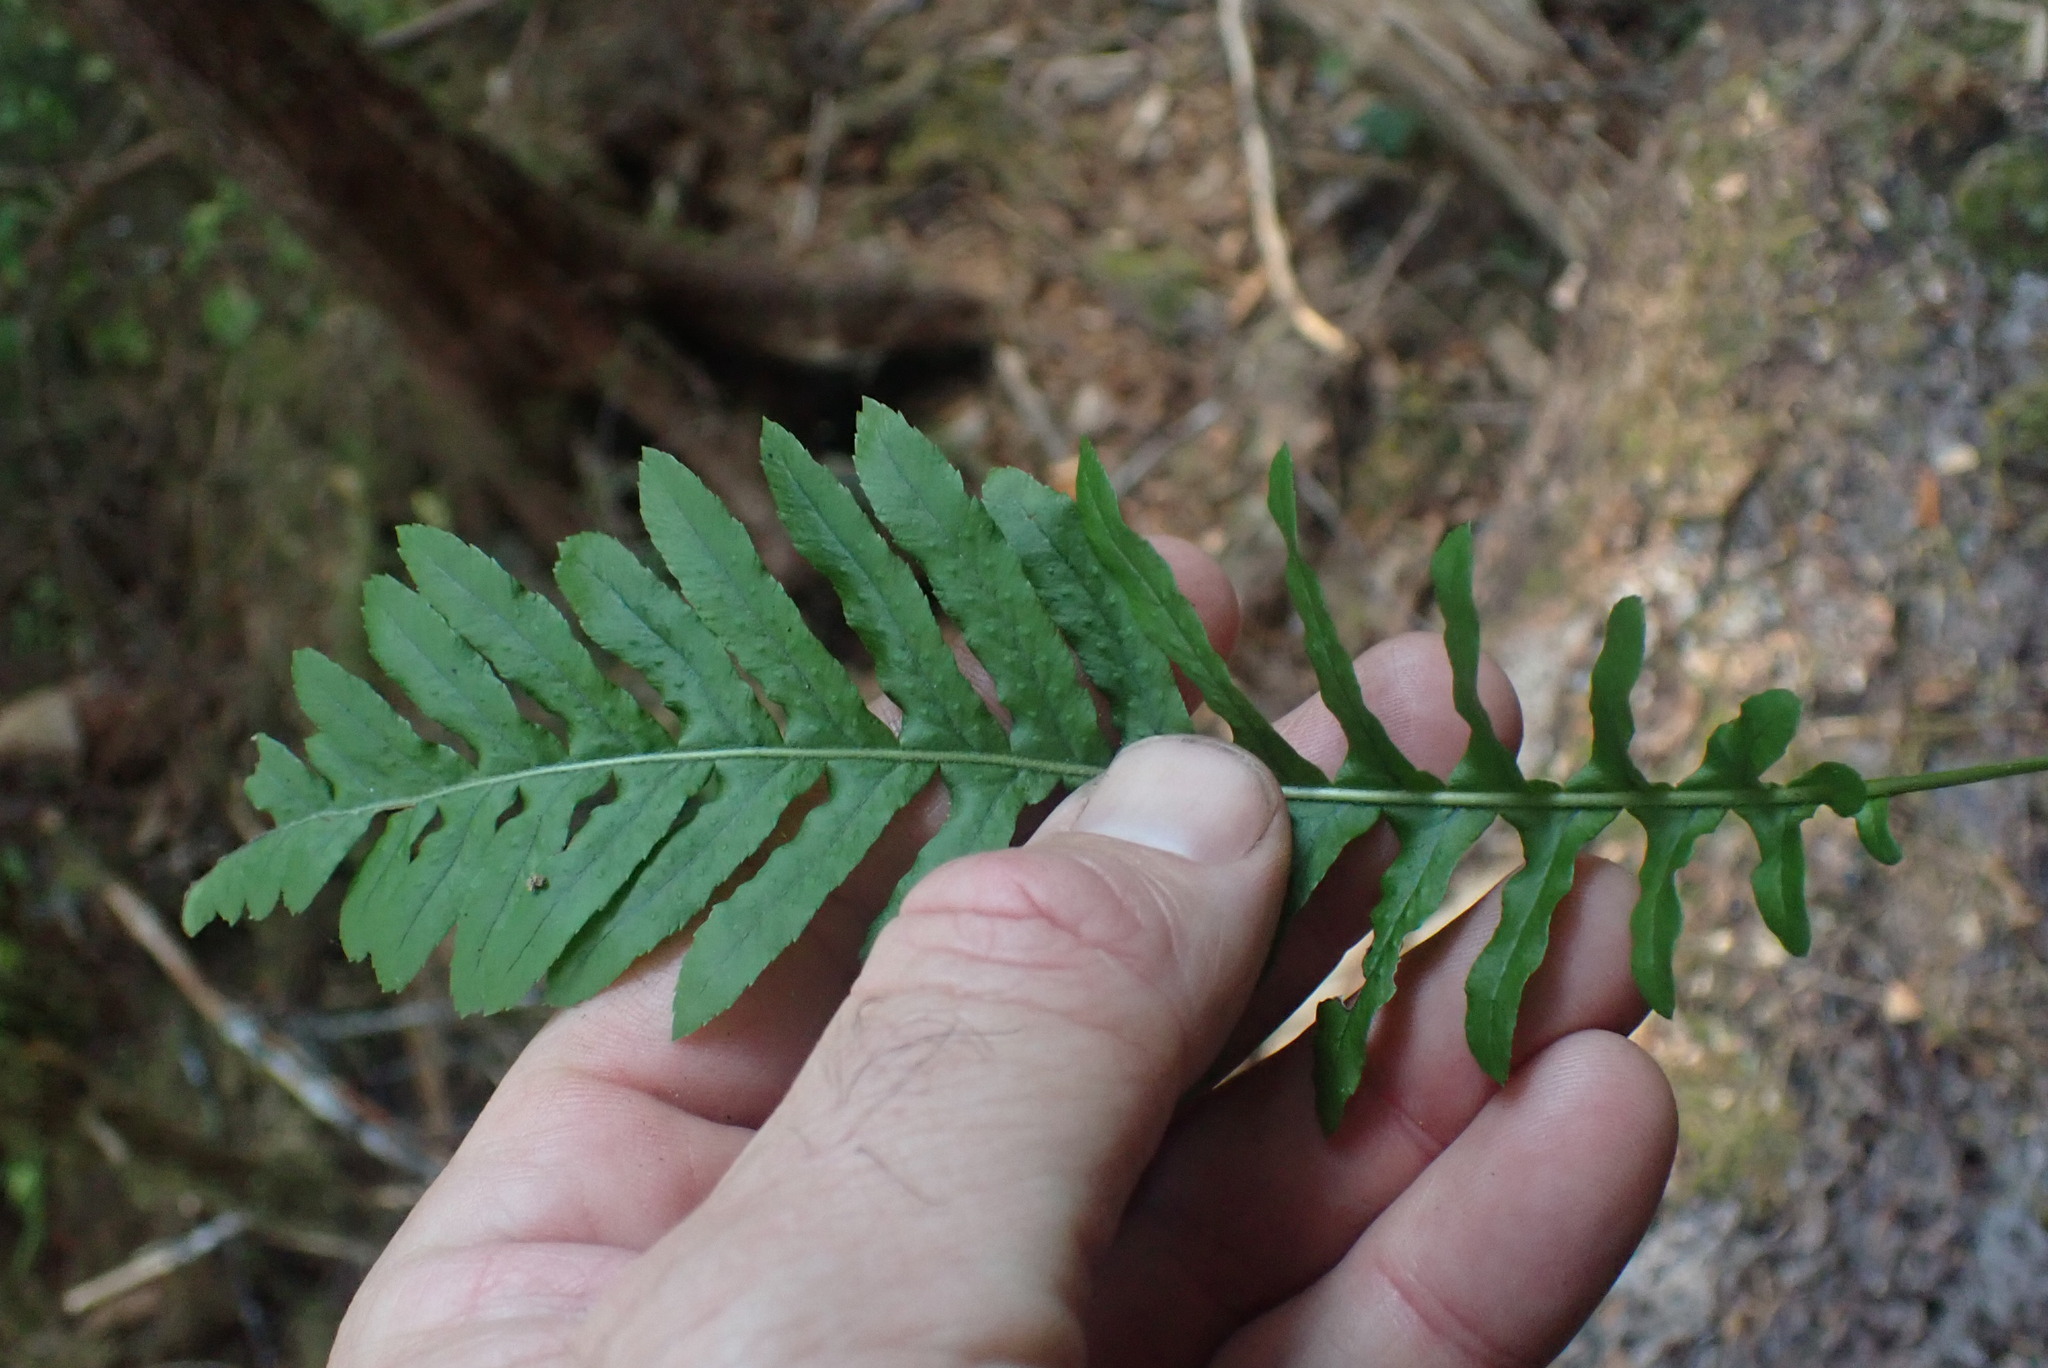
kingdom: Plantae
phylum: Tracheophyta
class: Polypodiopsida
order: Polypodiales
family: Polypodiaceae
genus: Polypodium
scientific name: Polypodium glycyrrhiza
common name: Licorice fern
